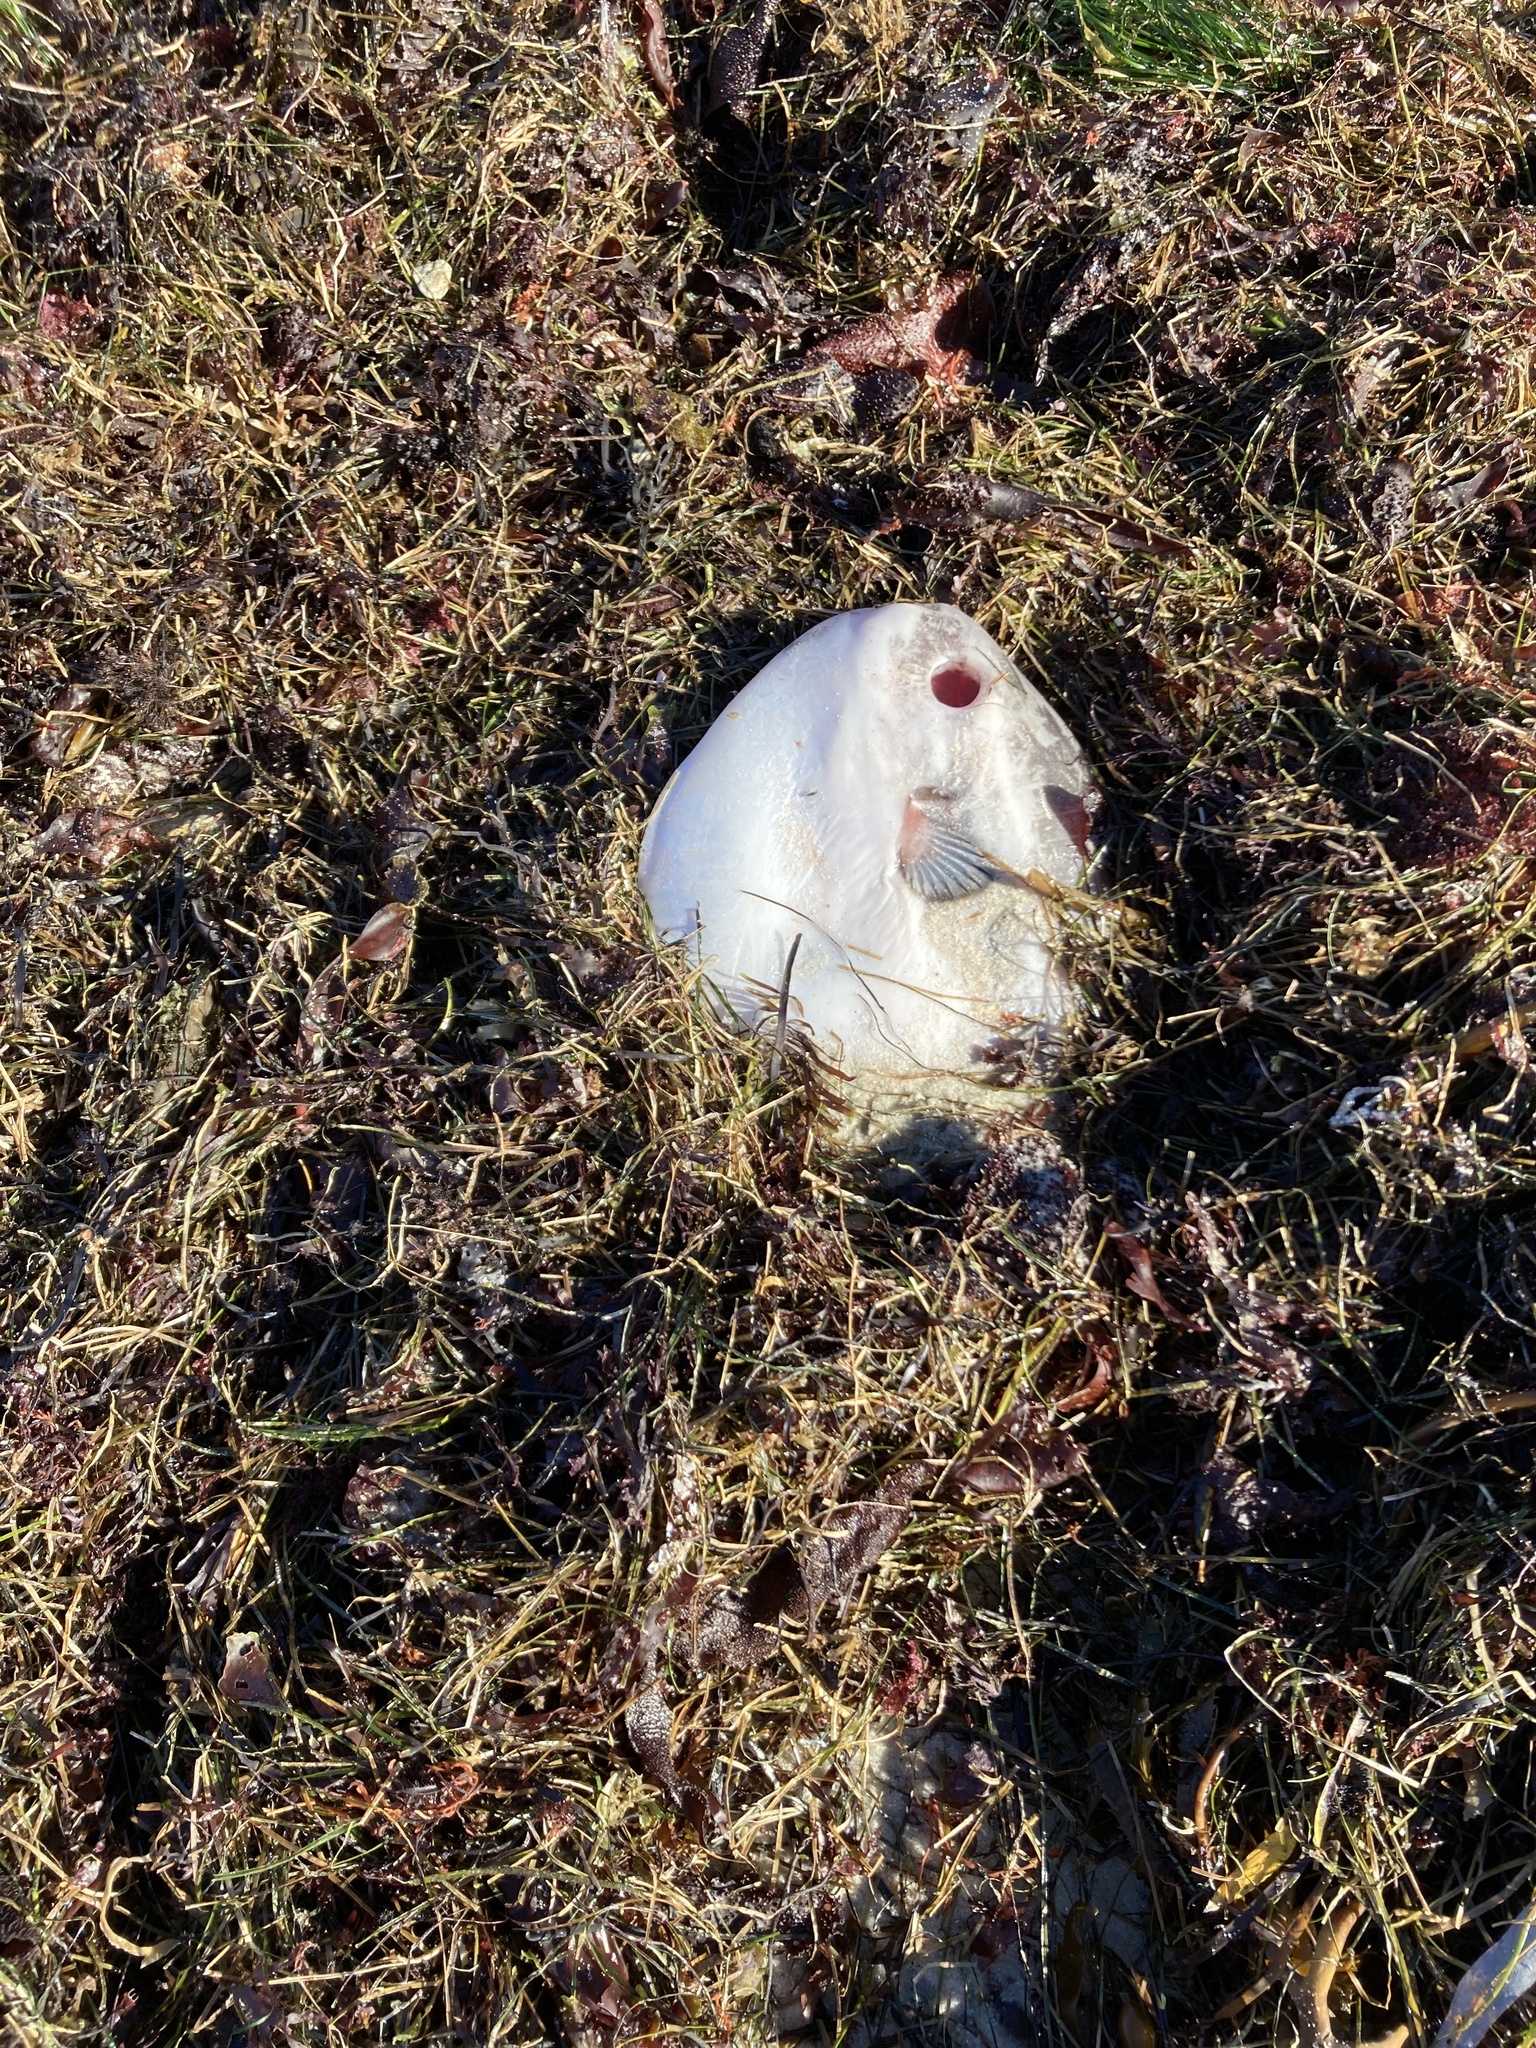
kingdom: Animalia
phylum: Chordata
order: Tetraodontiformes
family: Molidae
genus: Mola
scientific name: Mola mola
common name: Ocean sunfish
